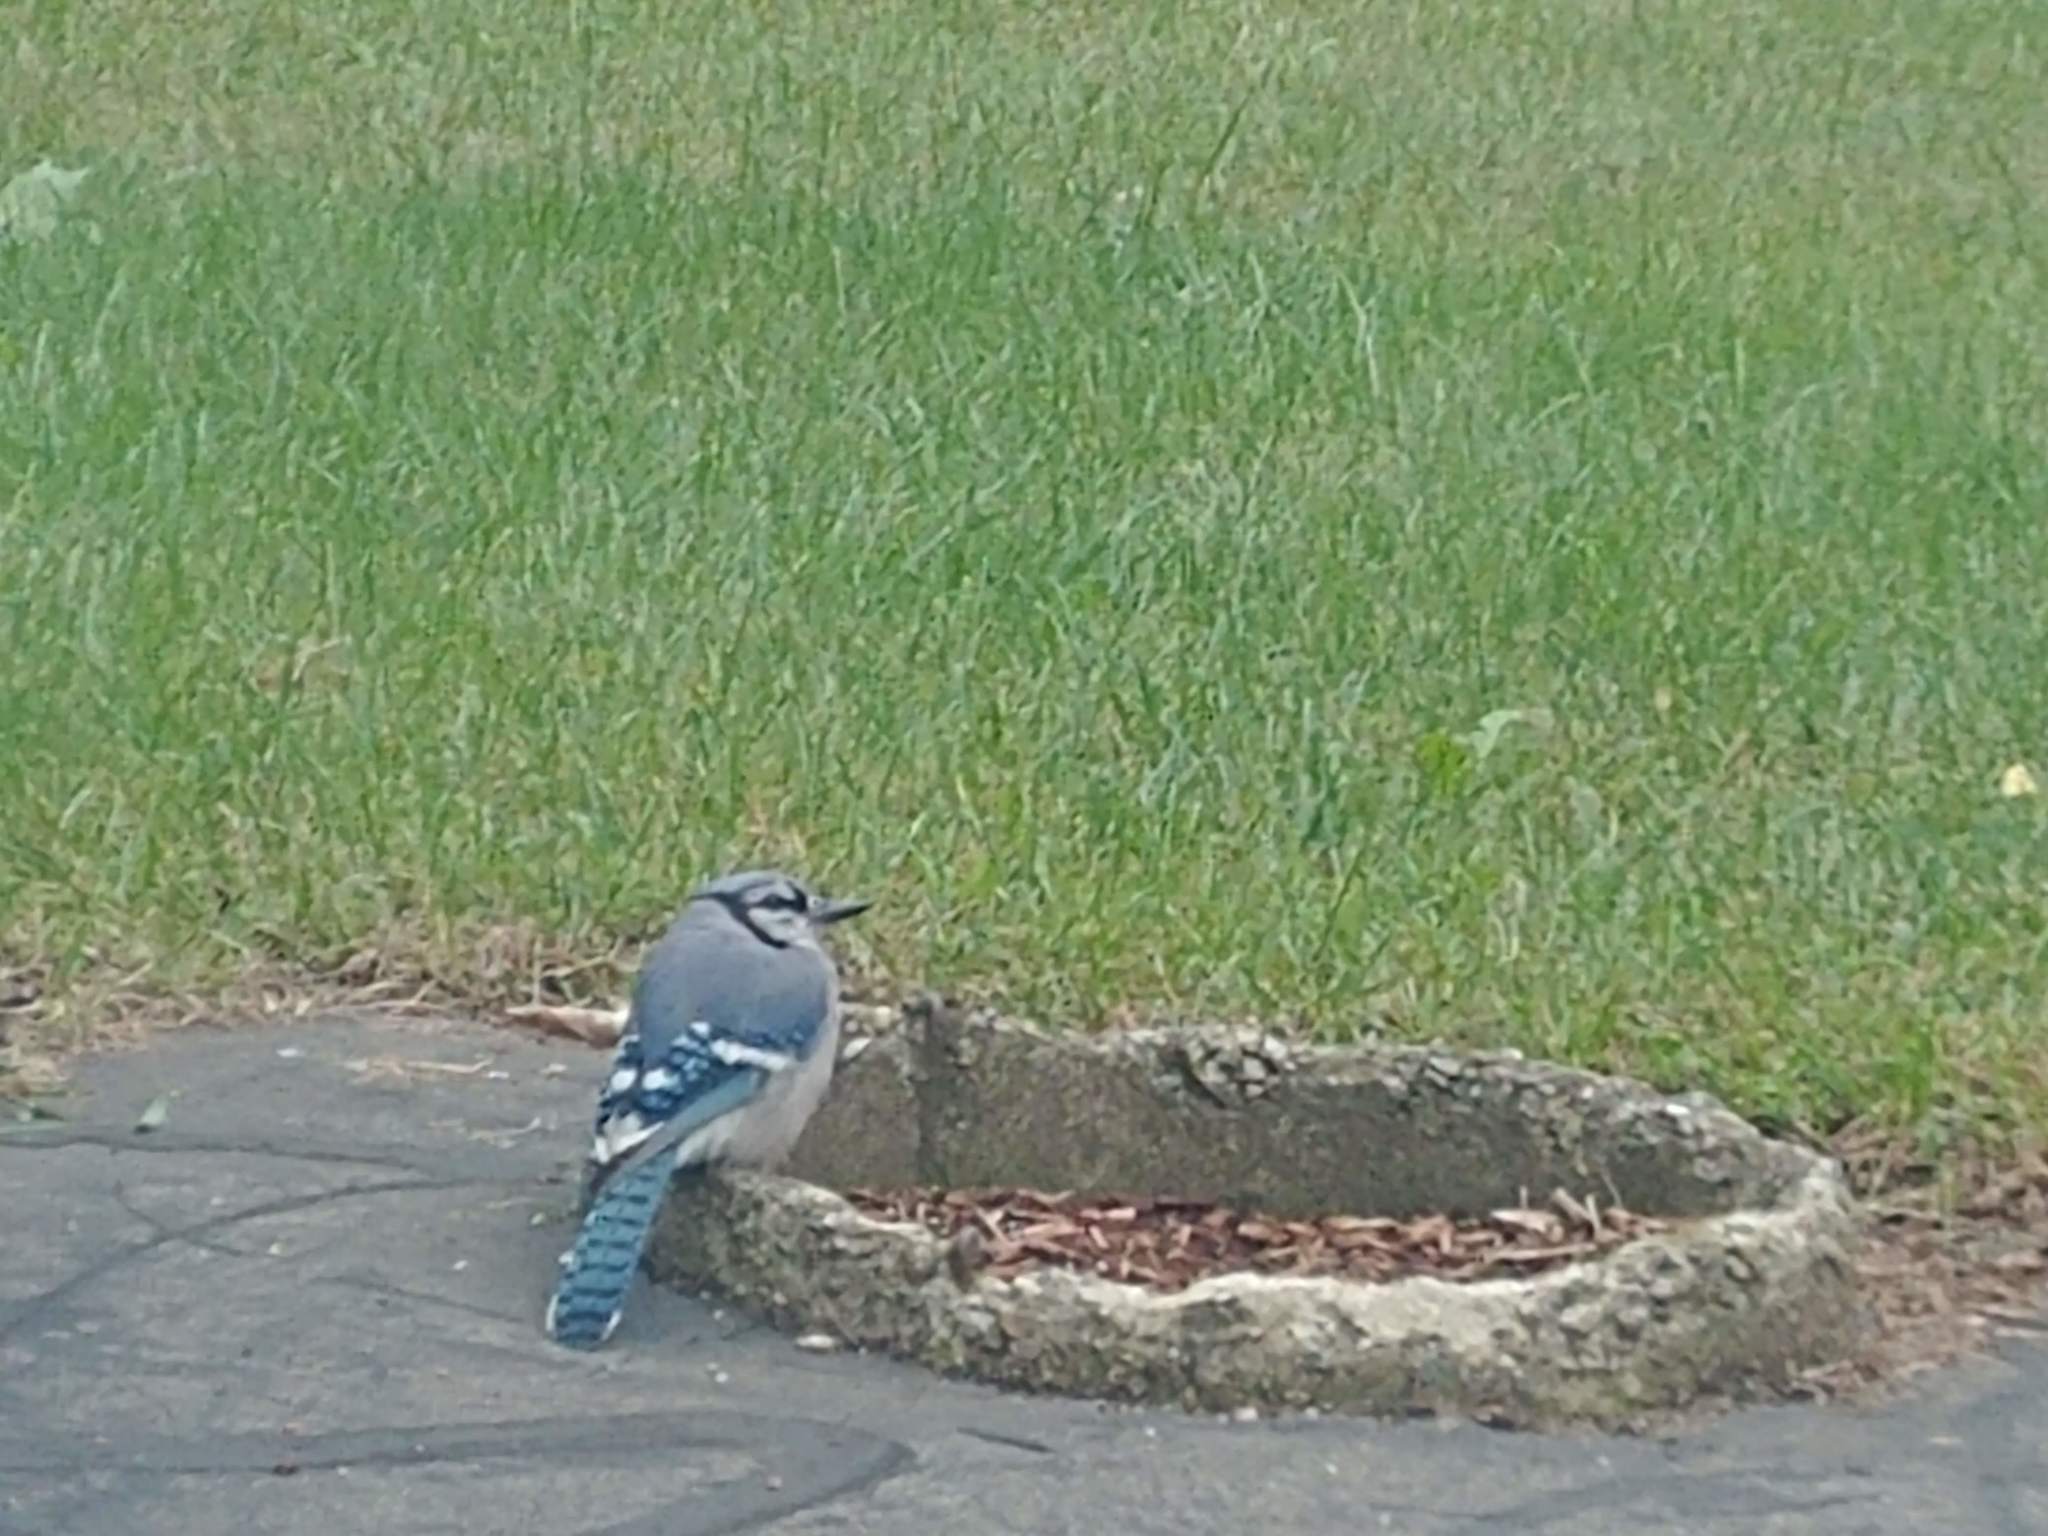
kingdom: Animalia
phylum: Chordata
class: Aves
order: Passeriformes
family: Corvidae
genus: Cyanocitta
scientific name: Cyanocitta cristata
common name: Blue jay
